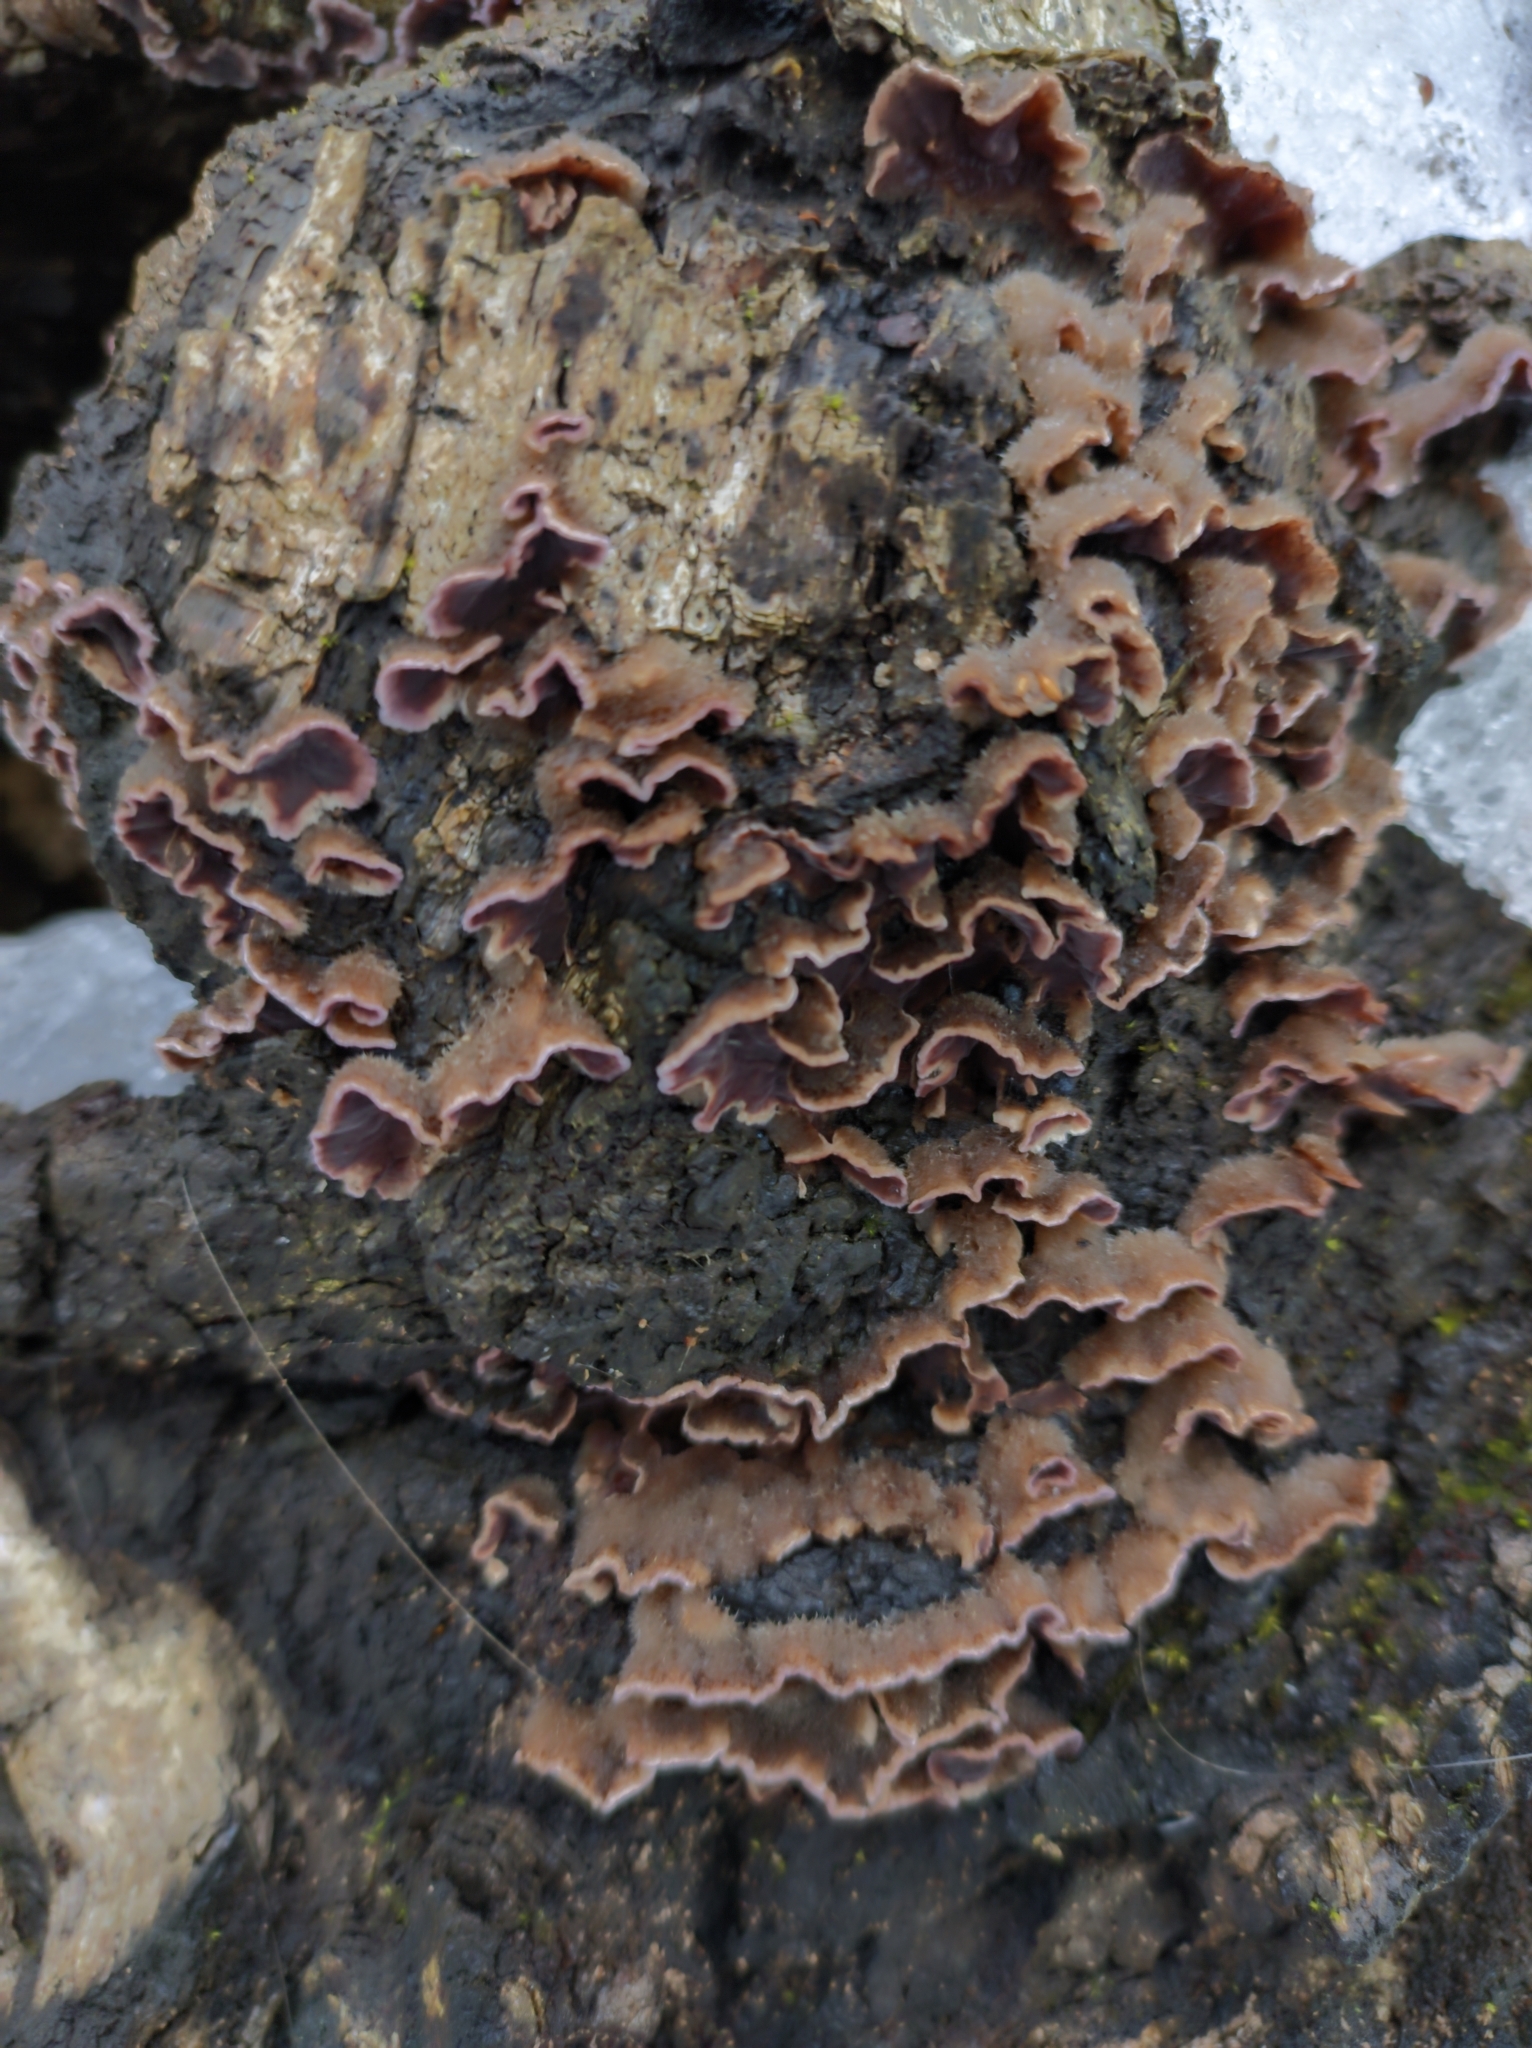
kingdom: Fungi
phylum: Basidiomycota
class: Agaricomycetes
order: Agaricales
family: Cyphellaceae
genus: Chondrostereum
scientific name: Chondrostereum purpureum
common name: Silver leaf disease
